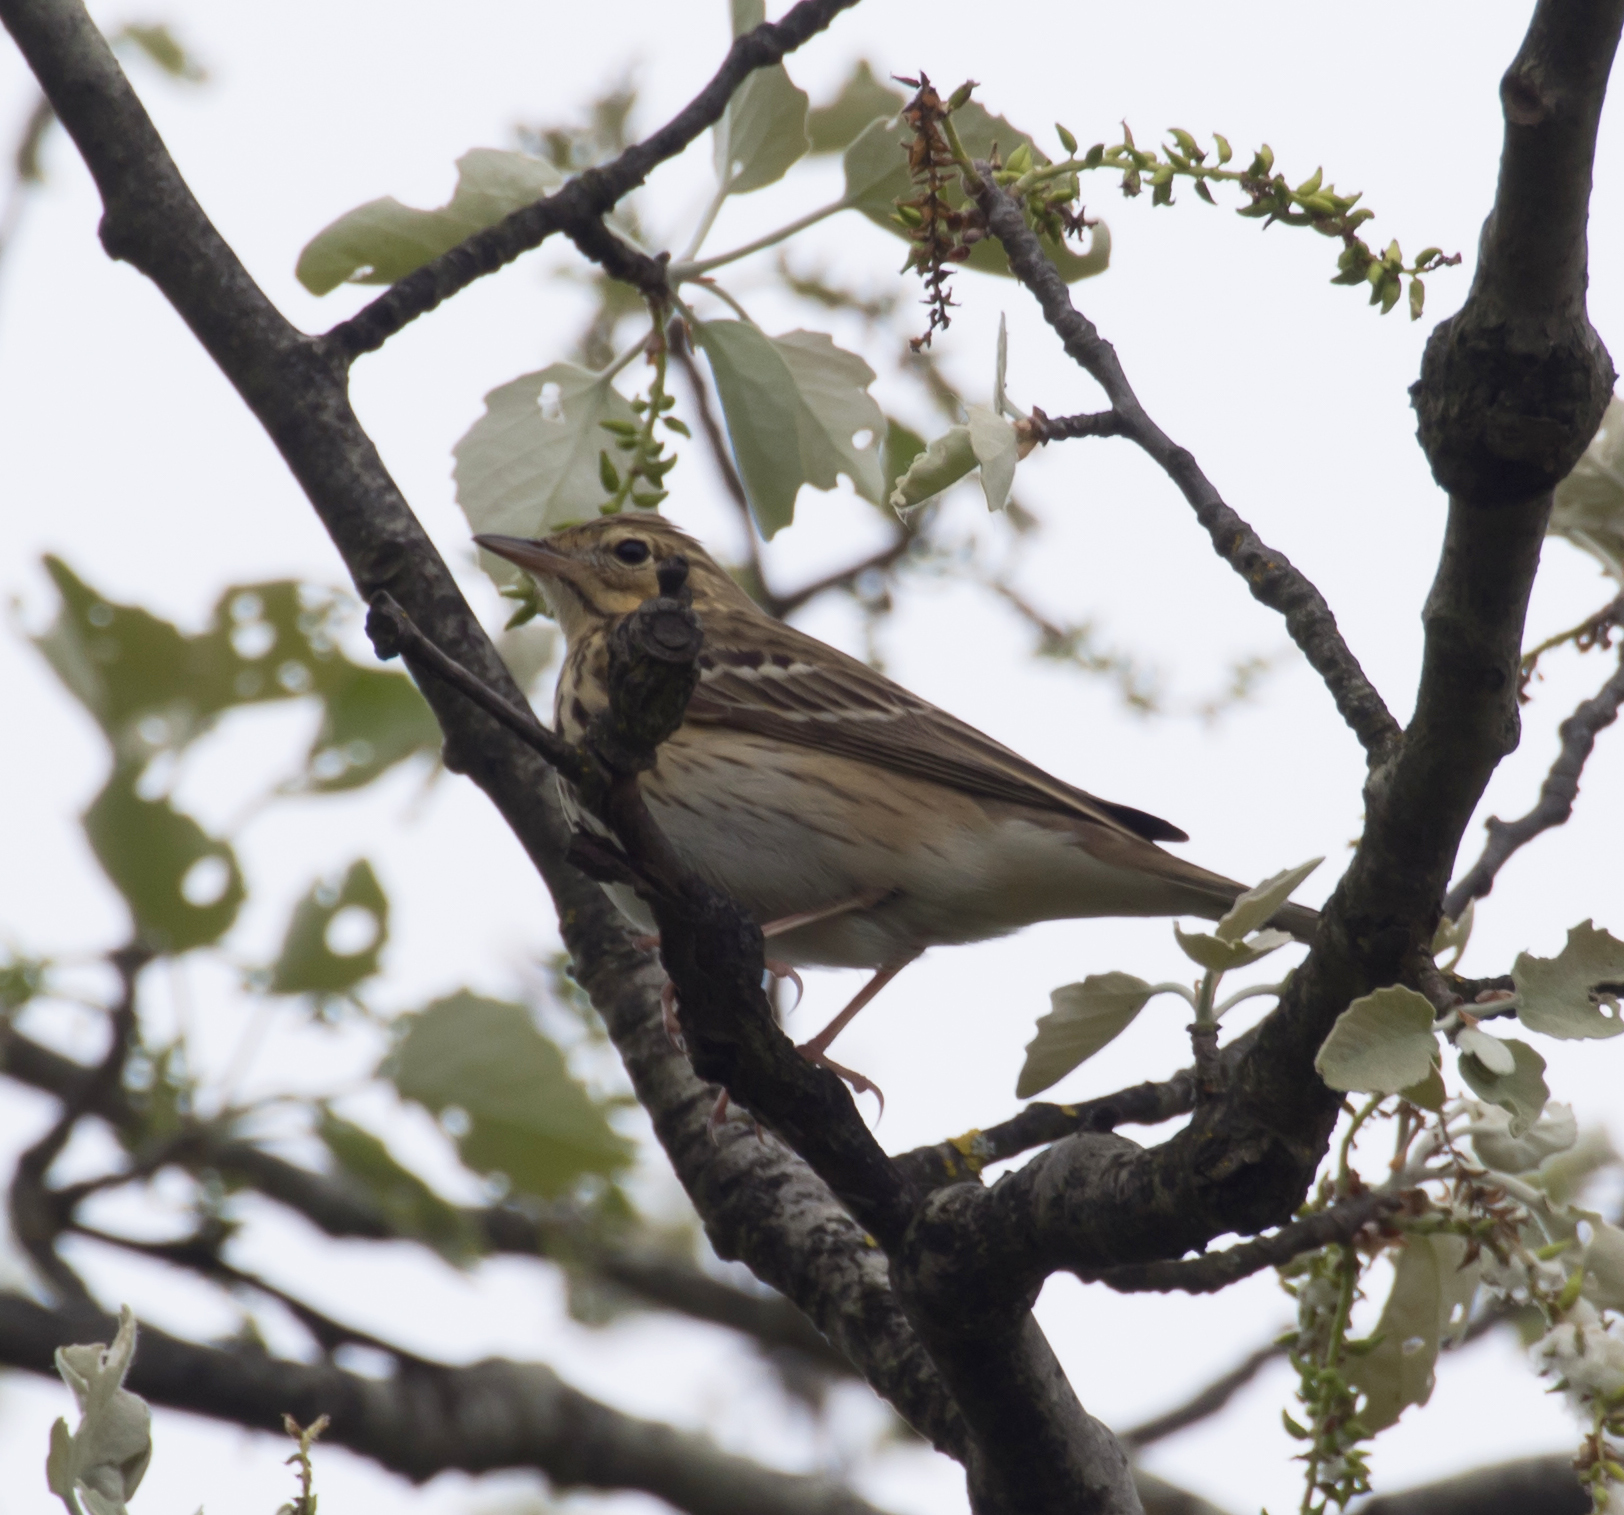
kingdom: Animalia
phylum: Chordata
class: Aves
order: Passeriformes
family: Motacillidae
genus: Anthus
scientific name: Anthus trivialis
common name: Tree pipit
